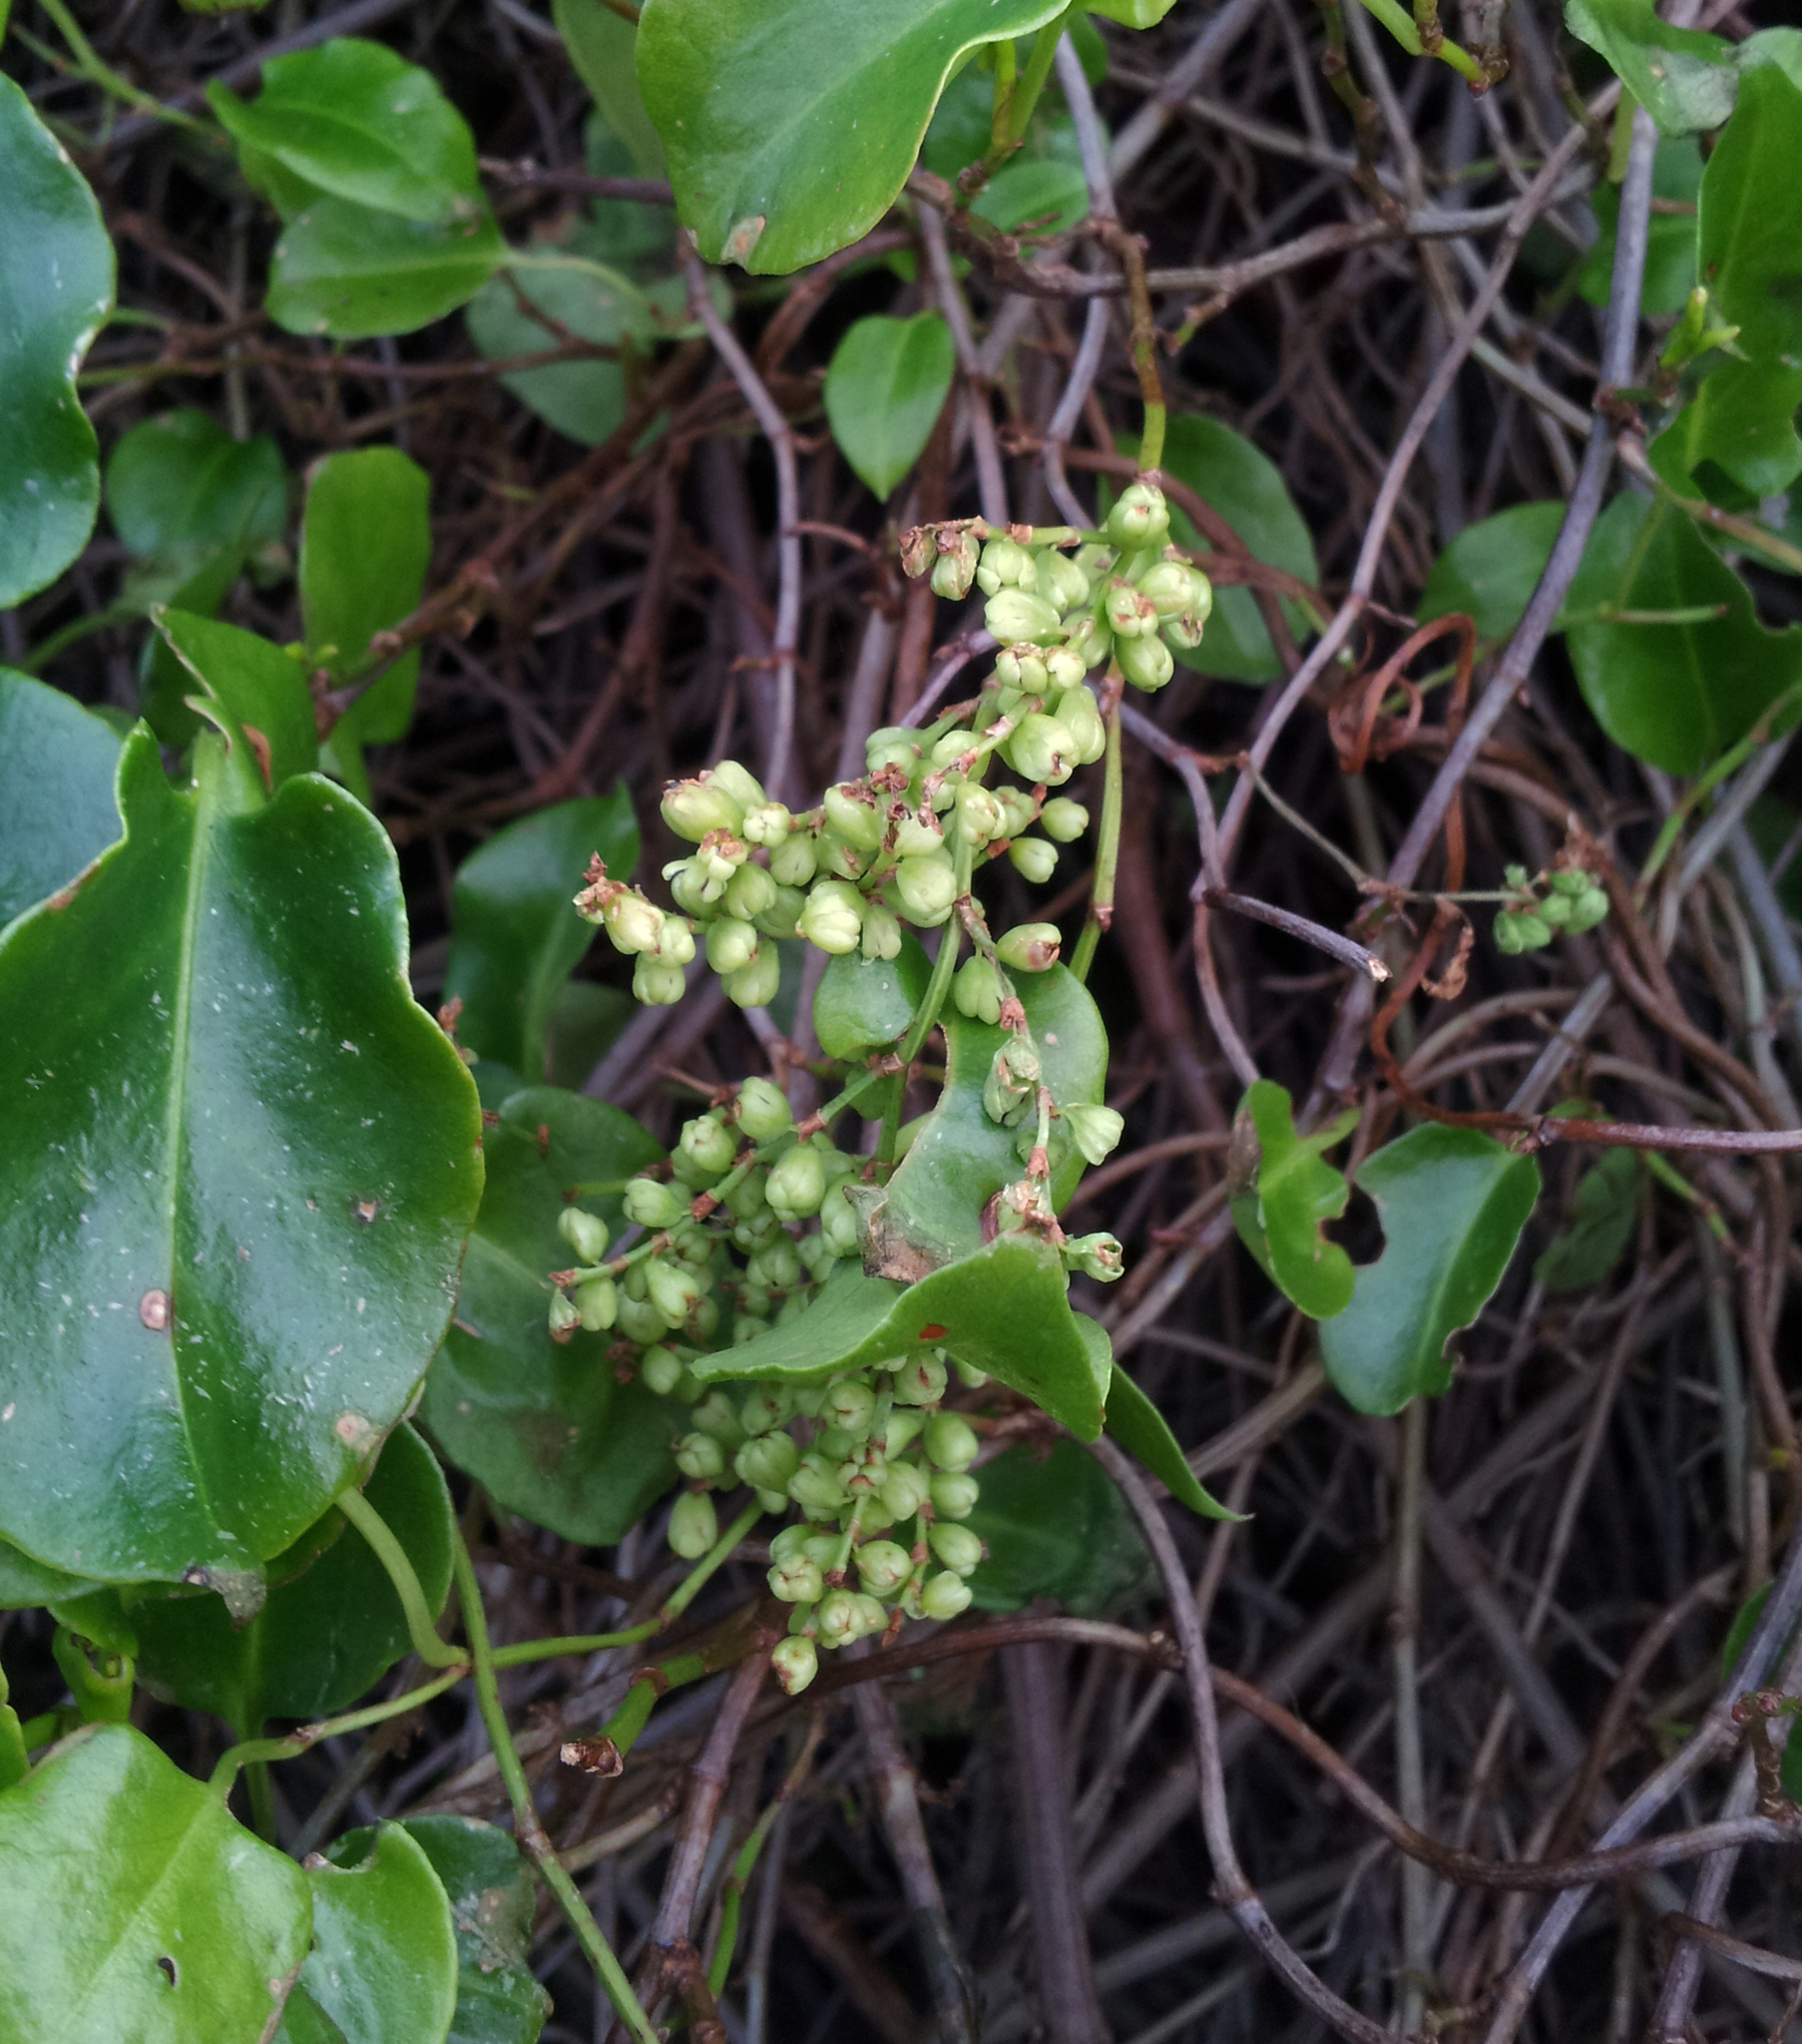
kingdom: Plantae
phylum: Tracheophyta
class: Magnoliopsida
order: Caryophyllales
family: Polygonaceae
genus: Muehlenbeckia
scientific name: Muehlenbeckia australis
